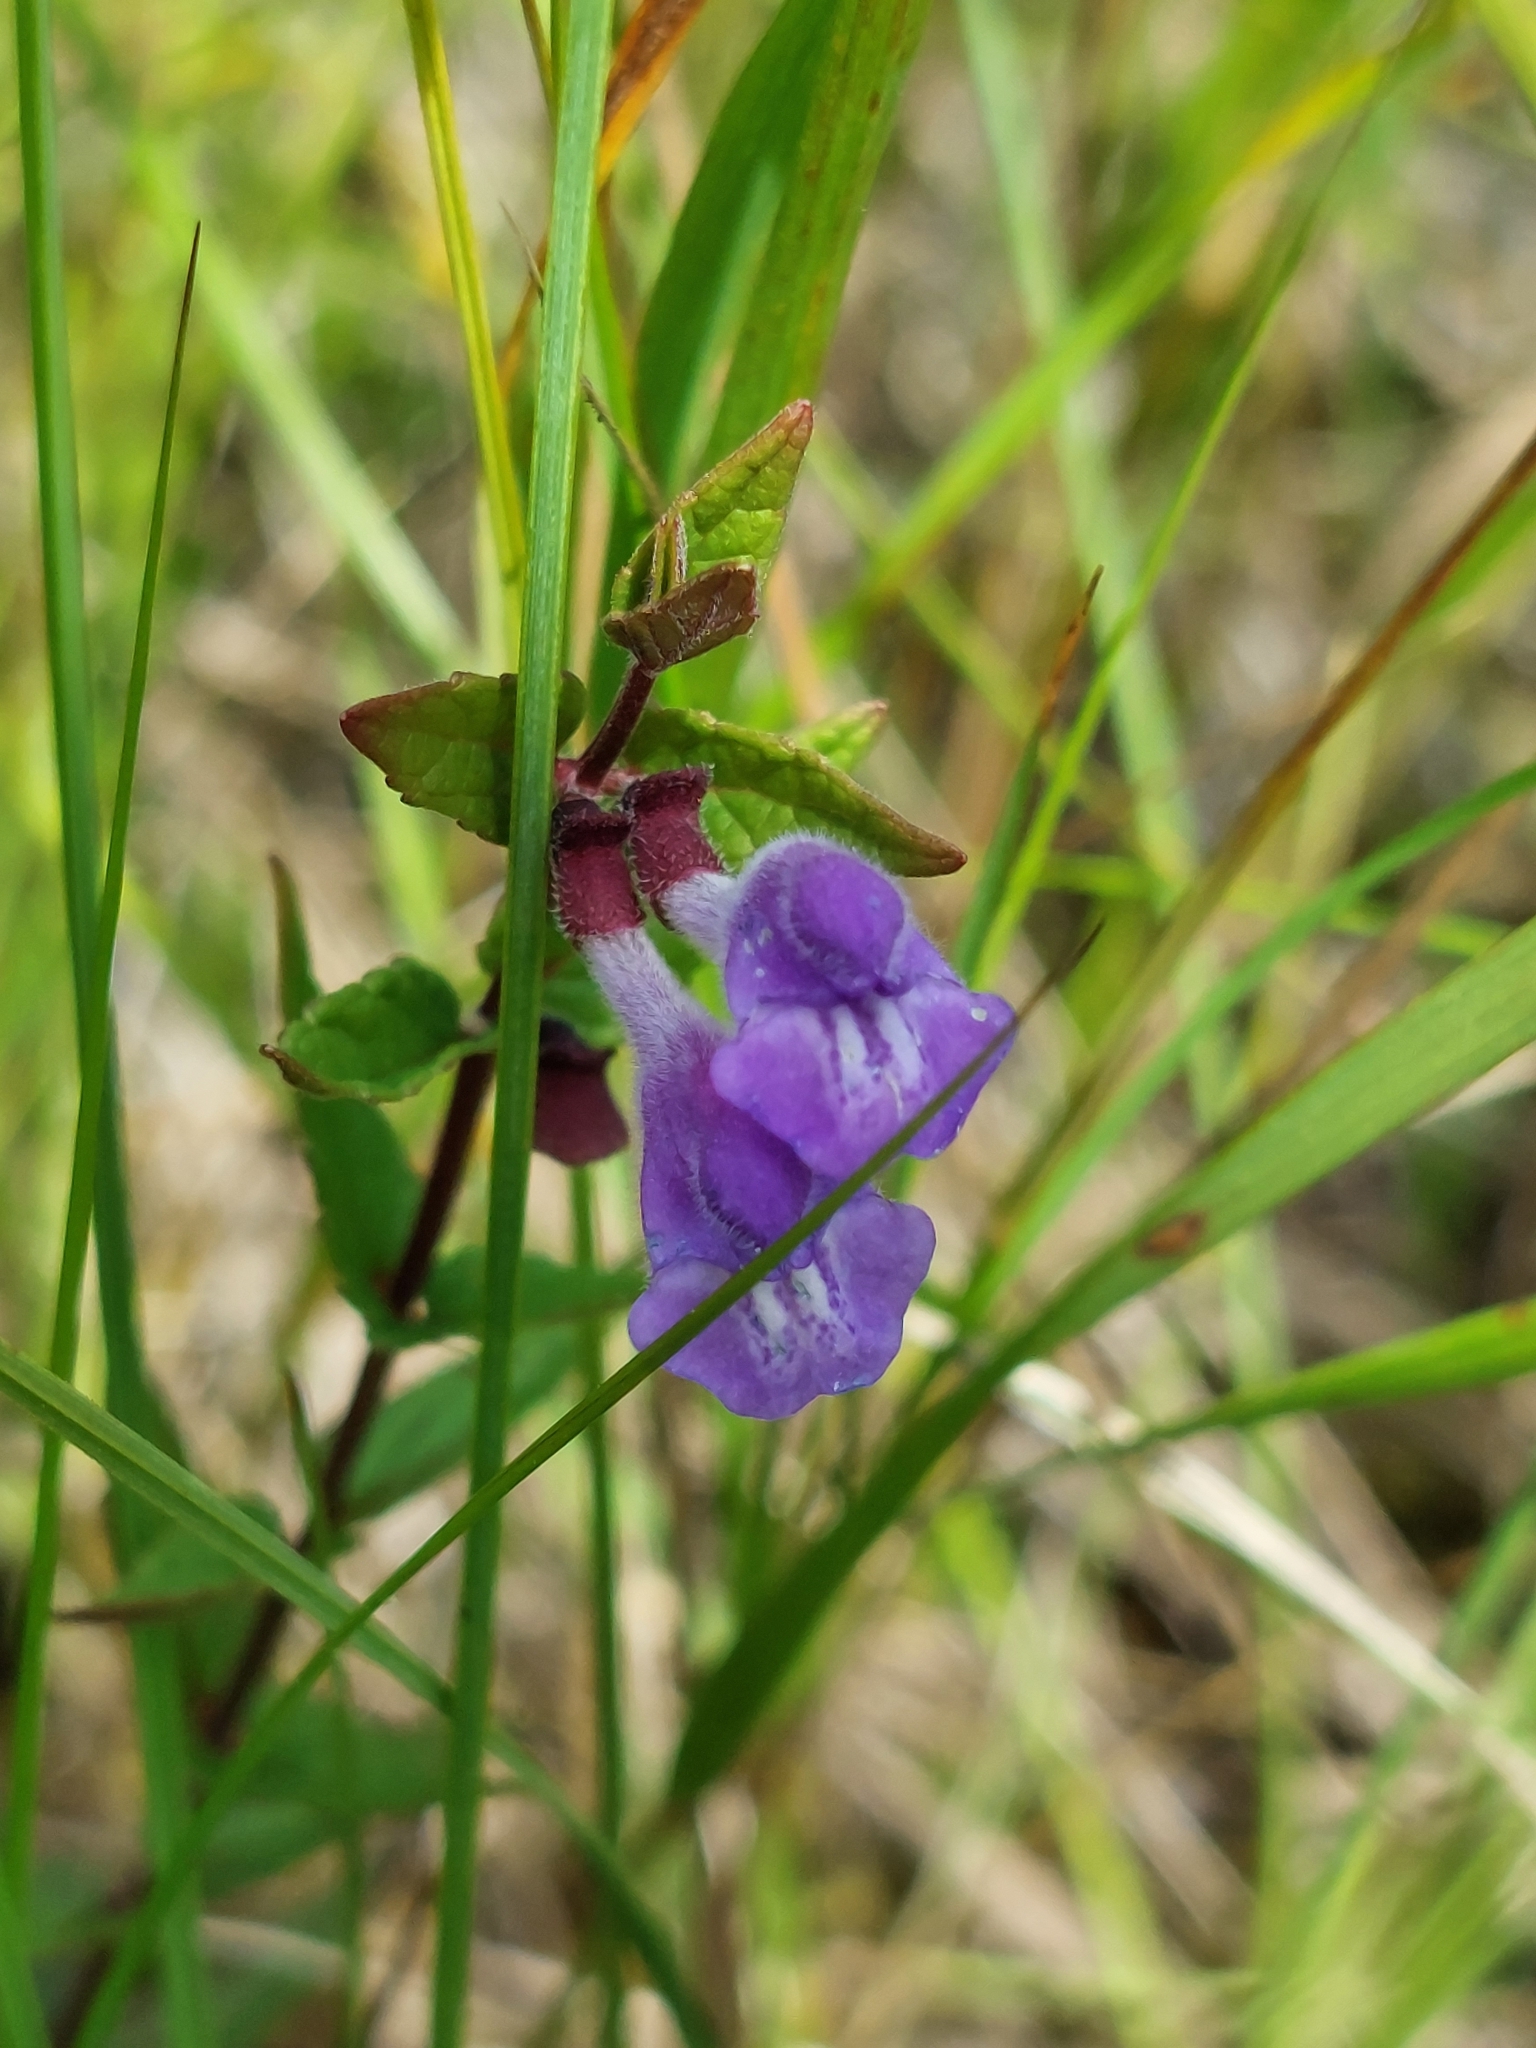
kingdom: Plantae
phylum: Tracheophyta
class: Magnoliopsida
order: Lamiales
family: Lamiaceae
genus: Scutellaria
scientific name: Scutellaria galericulata
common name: Skullcap
